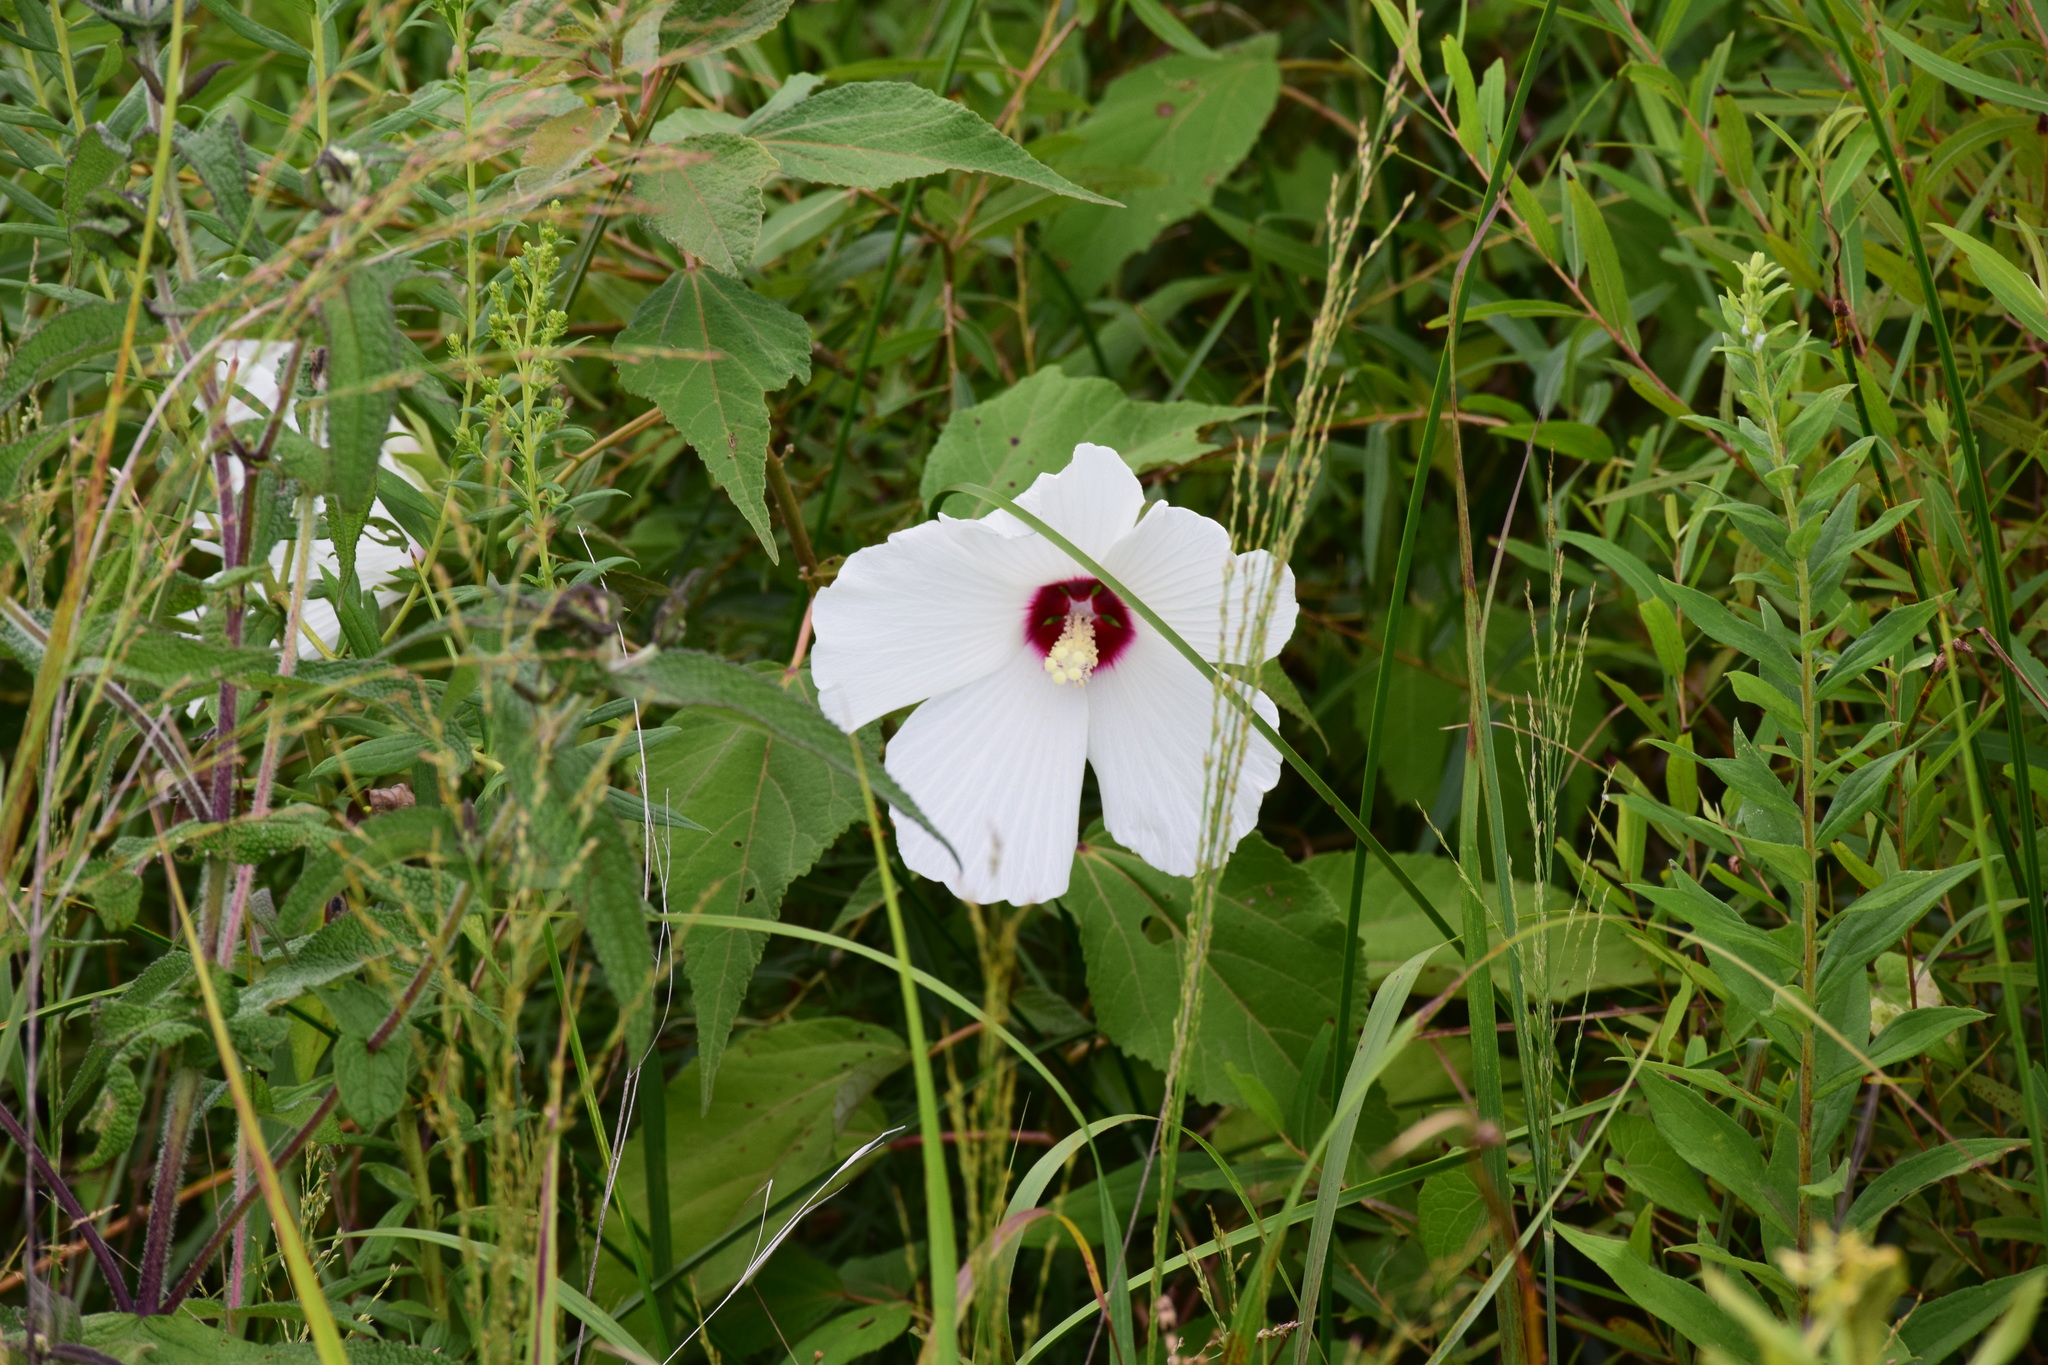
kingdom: Plantae
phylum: Tracheophyta
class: Magnoliopsida
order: Malvales
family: Malvaceae
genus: Hibiscus
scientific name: Hibiscus moscheutos
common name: Common rose-mallow
